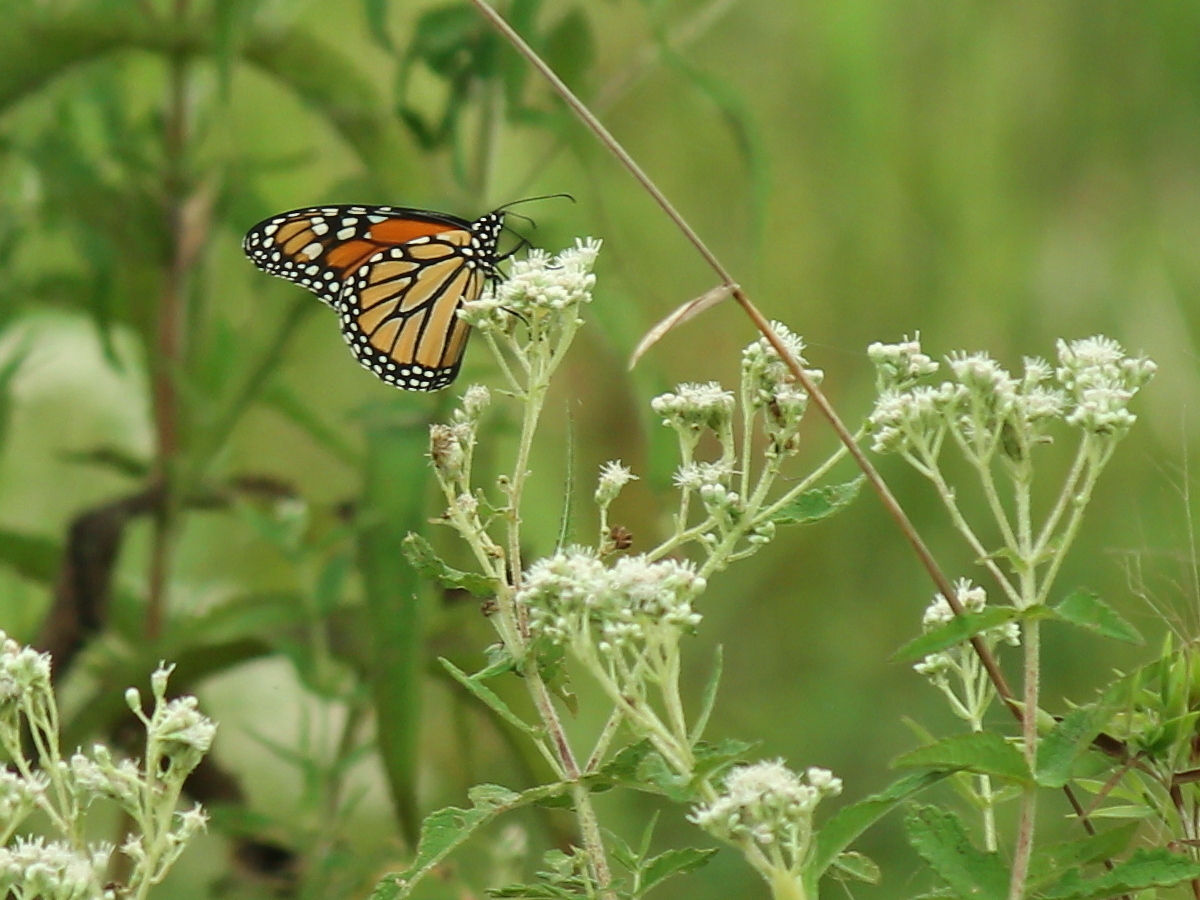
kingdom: Animalia
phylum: Arthropoda
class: Insecta
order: Lepidoptera
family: Nymphalidae
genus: Danaus
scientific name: Danaus plexippus
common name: Monarch
